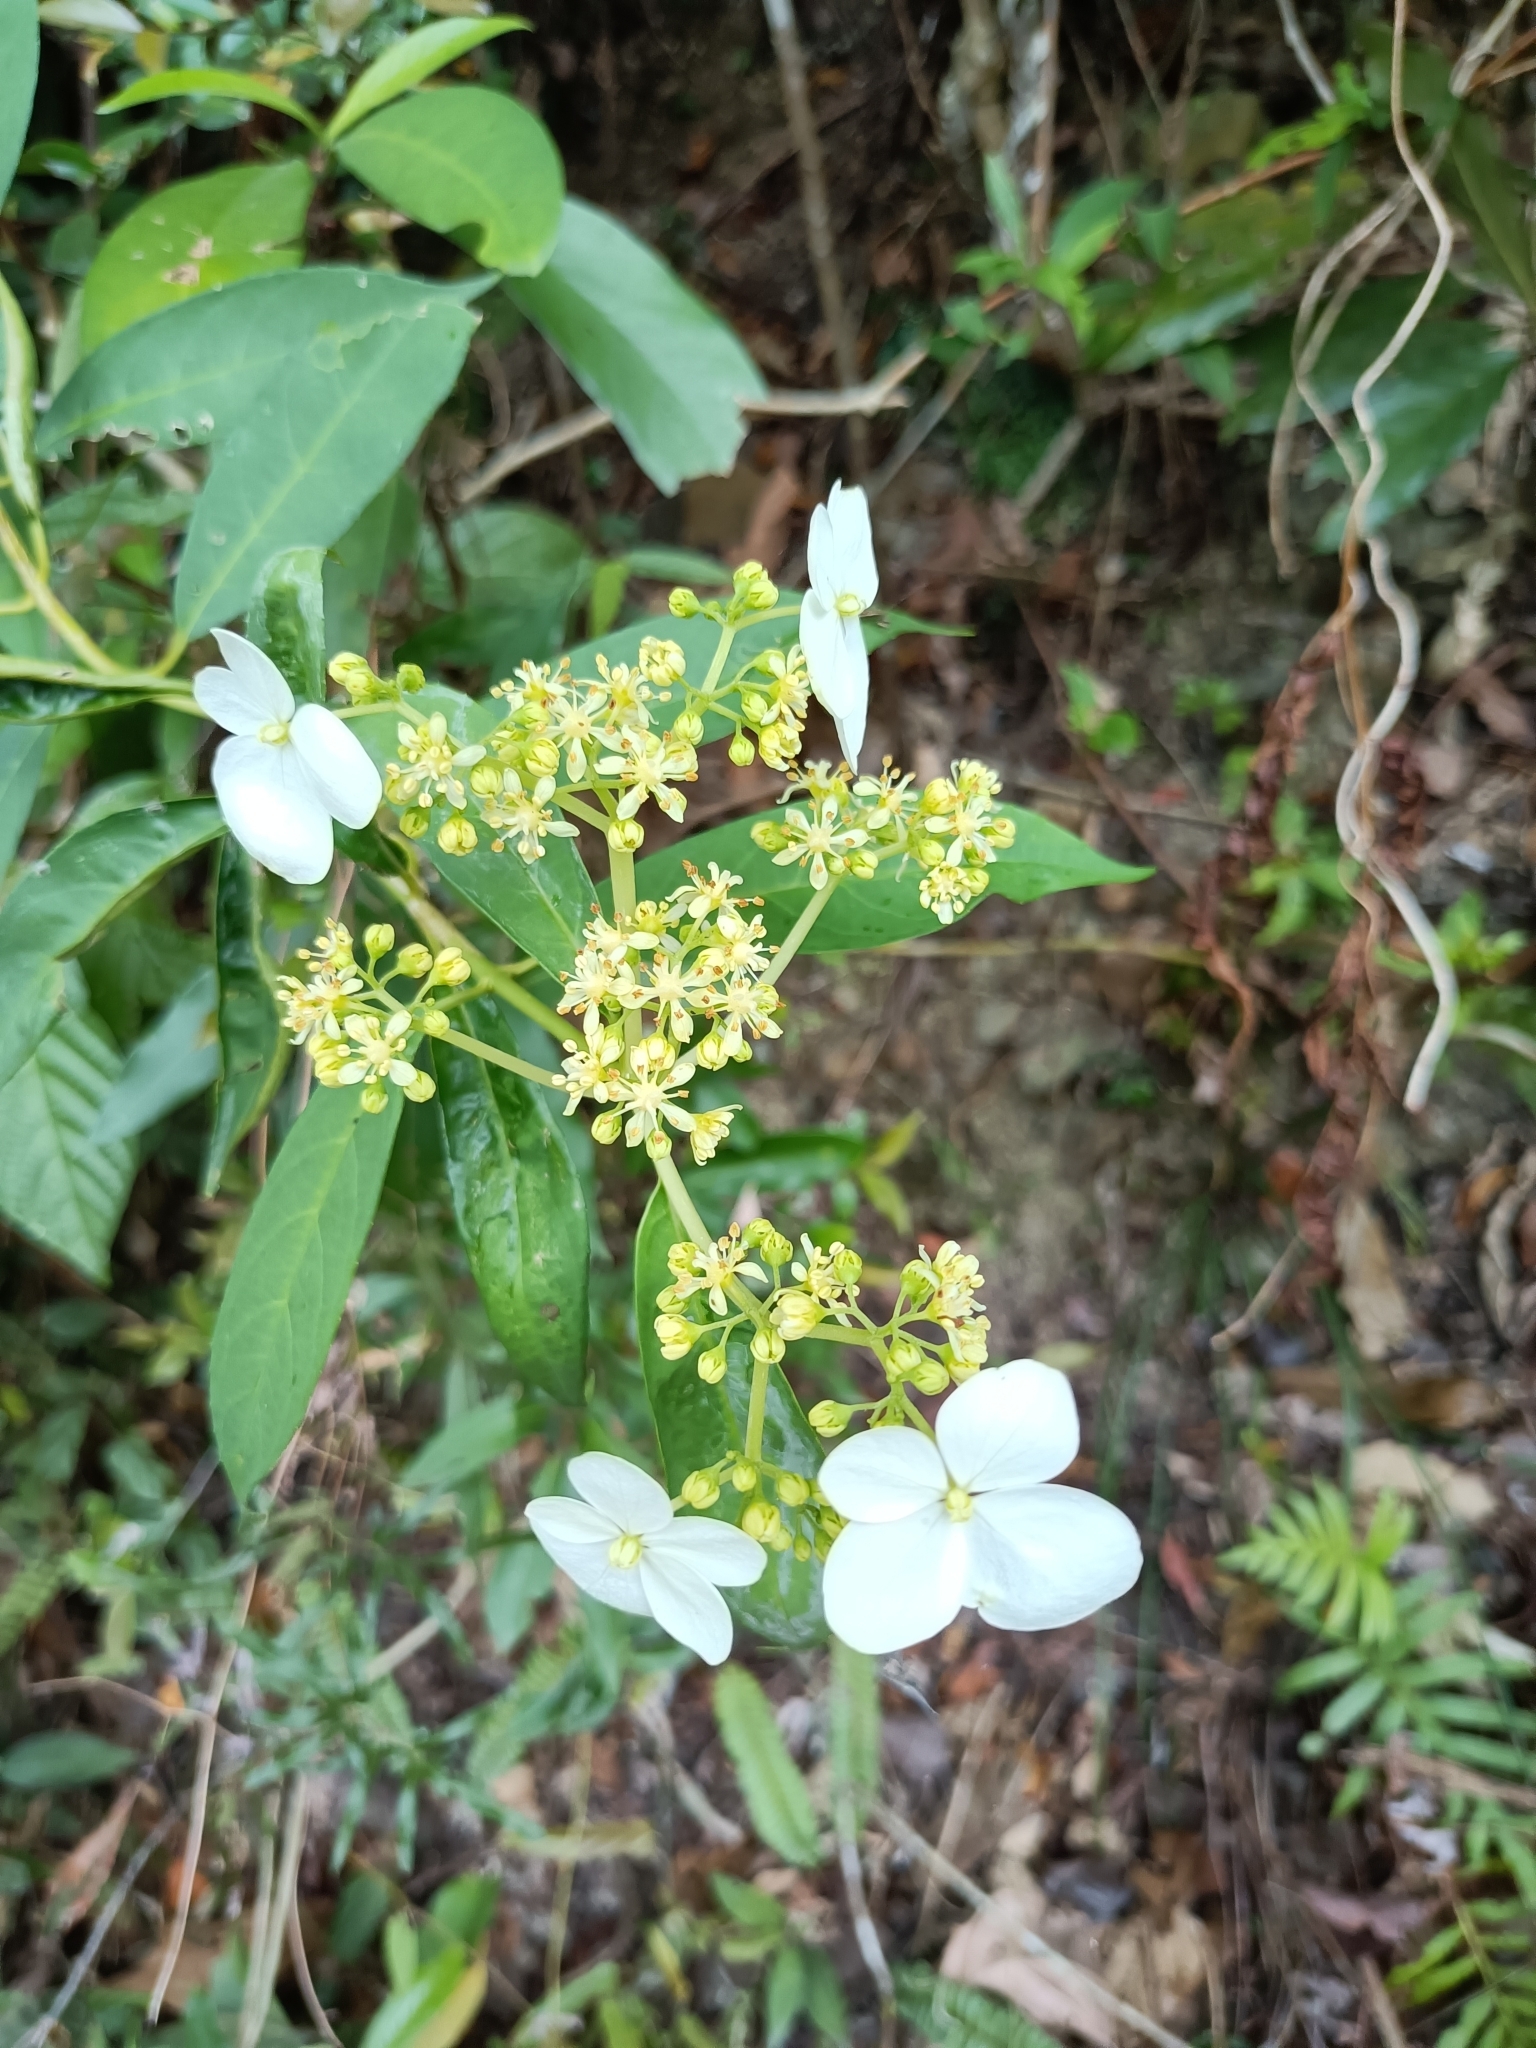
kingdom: Plantae
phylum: Tracheophyta
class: Magnoliopsida
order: Cornales
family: Hydrangeaceae
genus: Hydrangea
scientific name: Hydrangea chinensis
